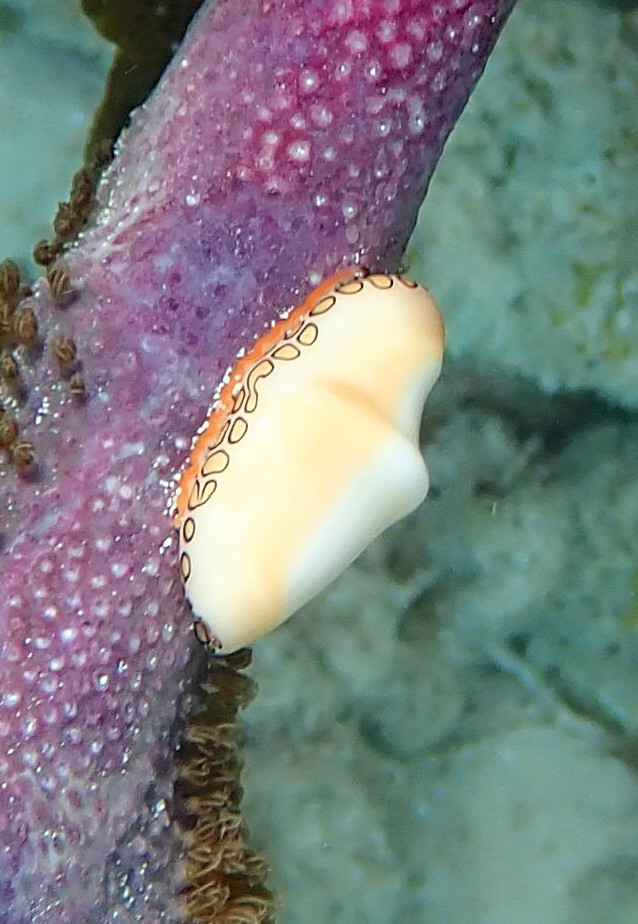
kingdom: Animalia
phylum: Mollusca
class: Gastropoda
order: Littorinimorpha
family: Ovulidae
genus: Cyphoma
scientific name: Cyphoma gibbosum
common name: Flamingo tongue
